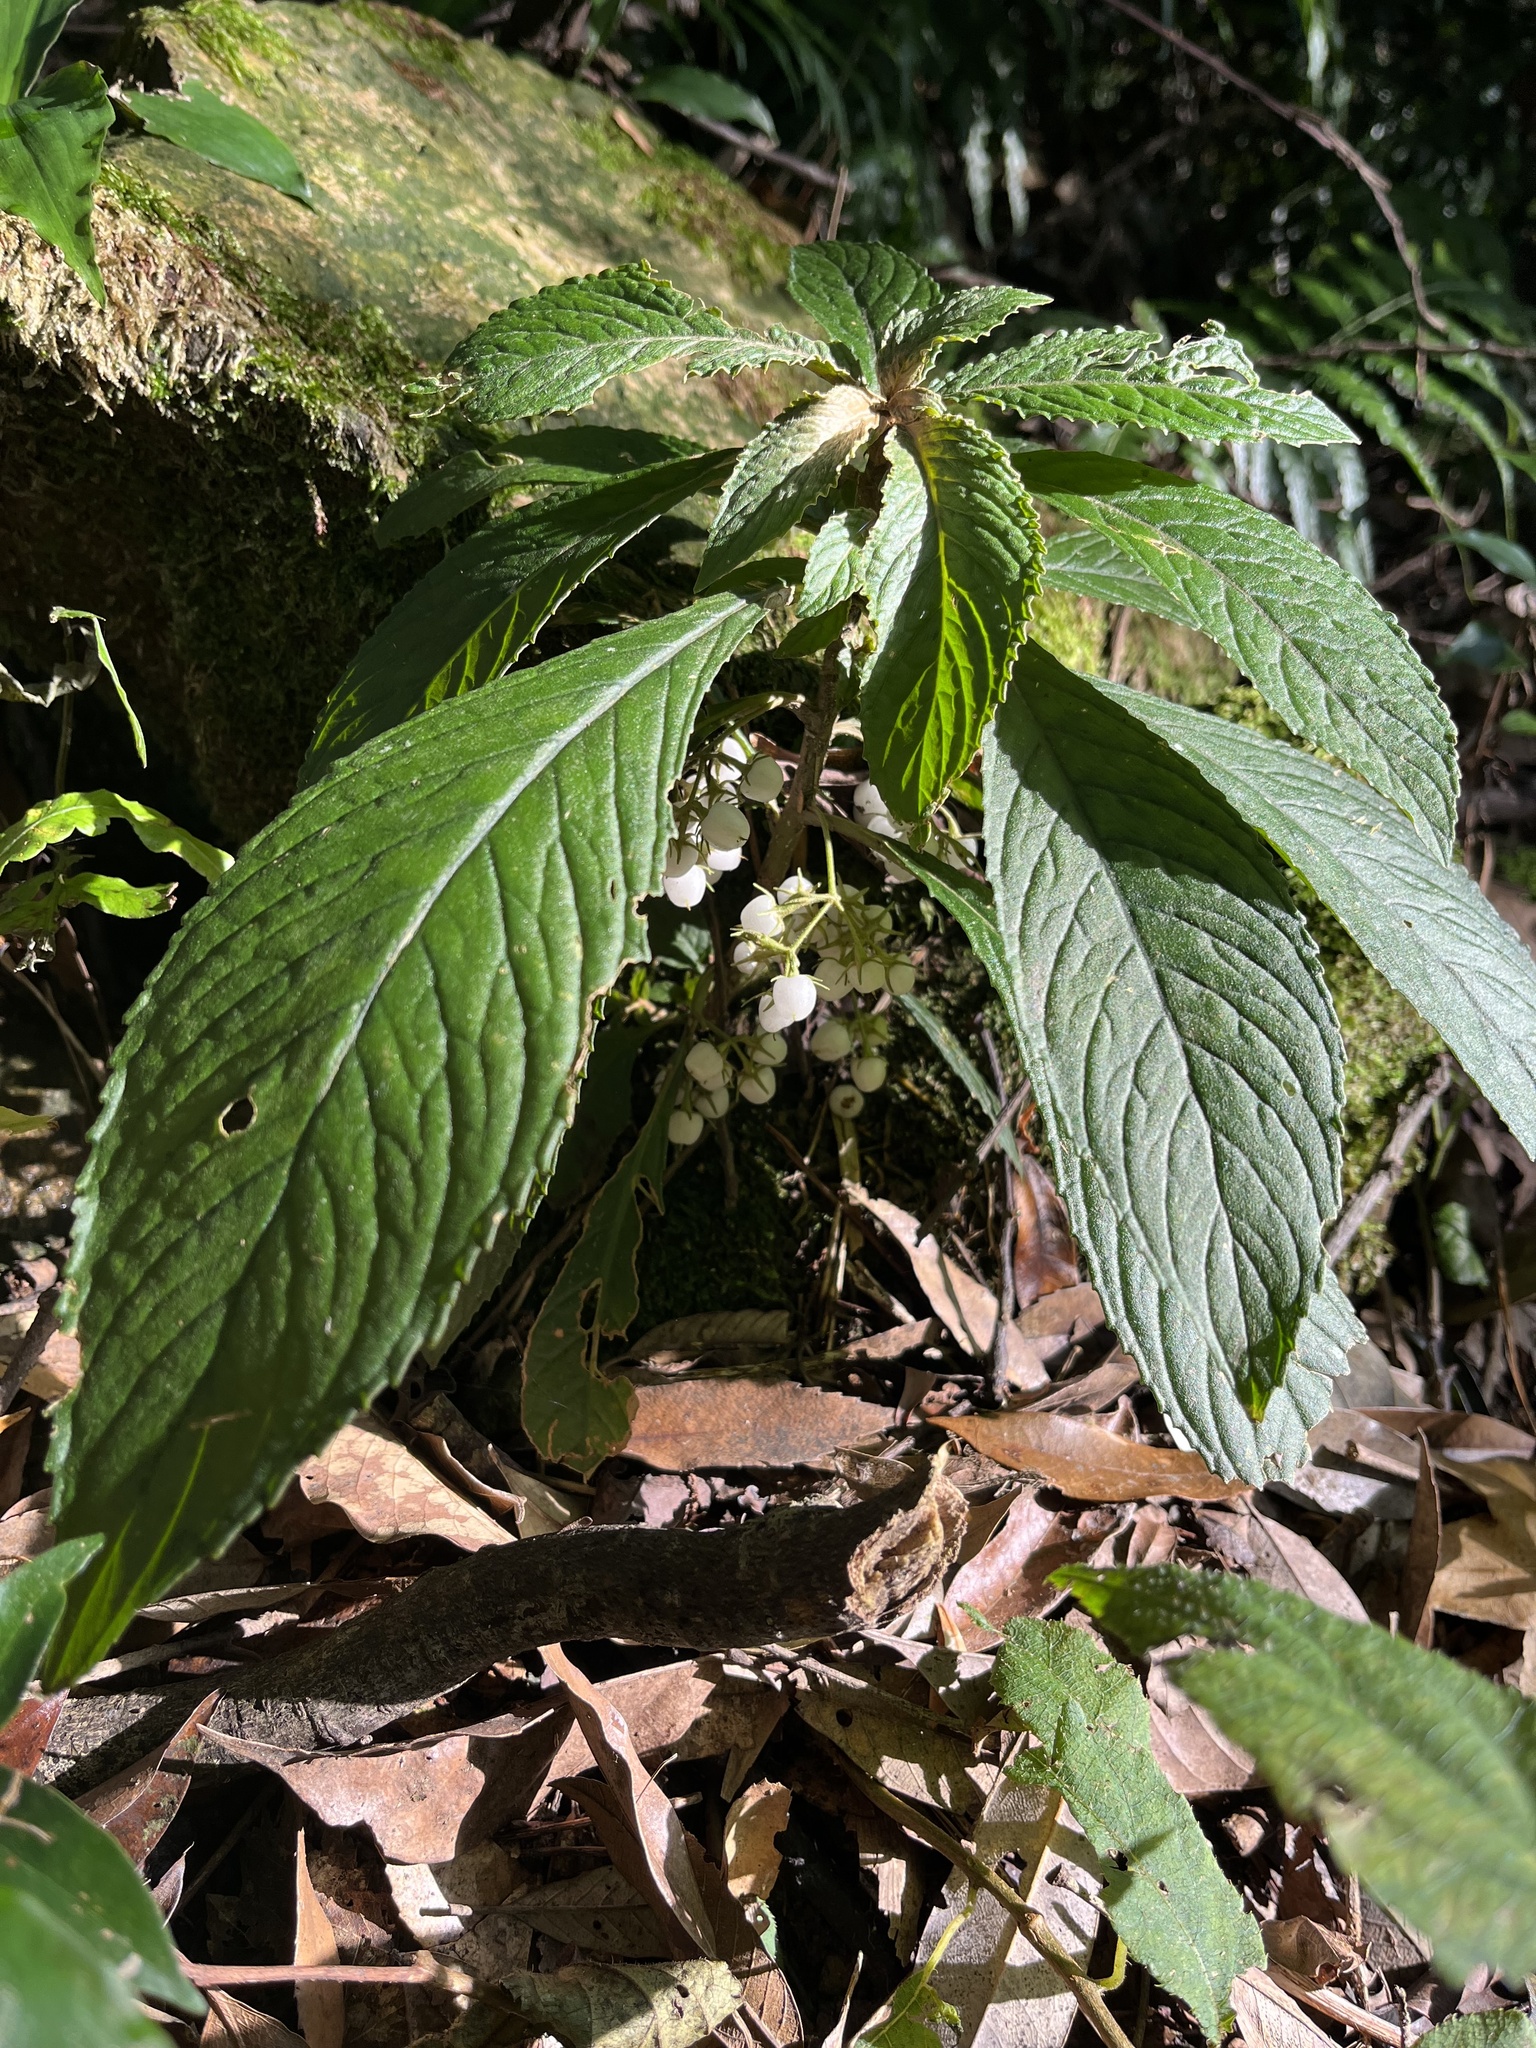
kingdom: Plantae
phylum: Tracheophyta
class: Magnoliopsida
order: Lamiales
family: Gesneriaceae
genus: Rhynchotechum
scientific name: Rhynchotechum discolor
